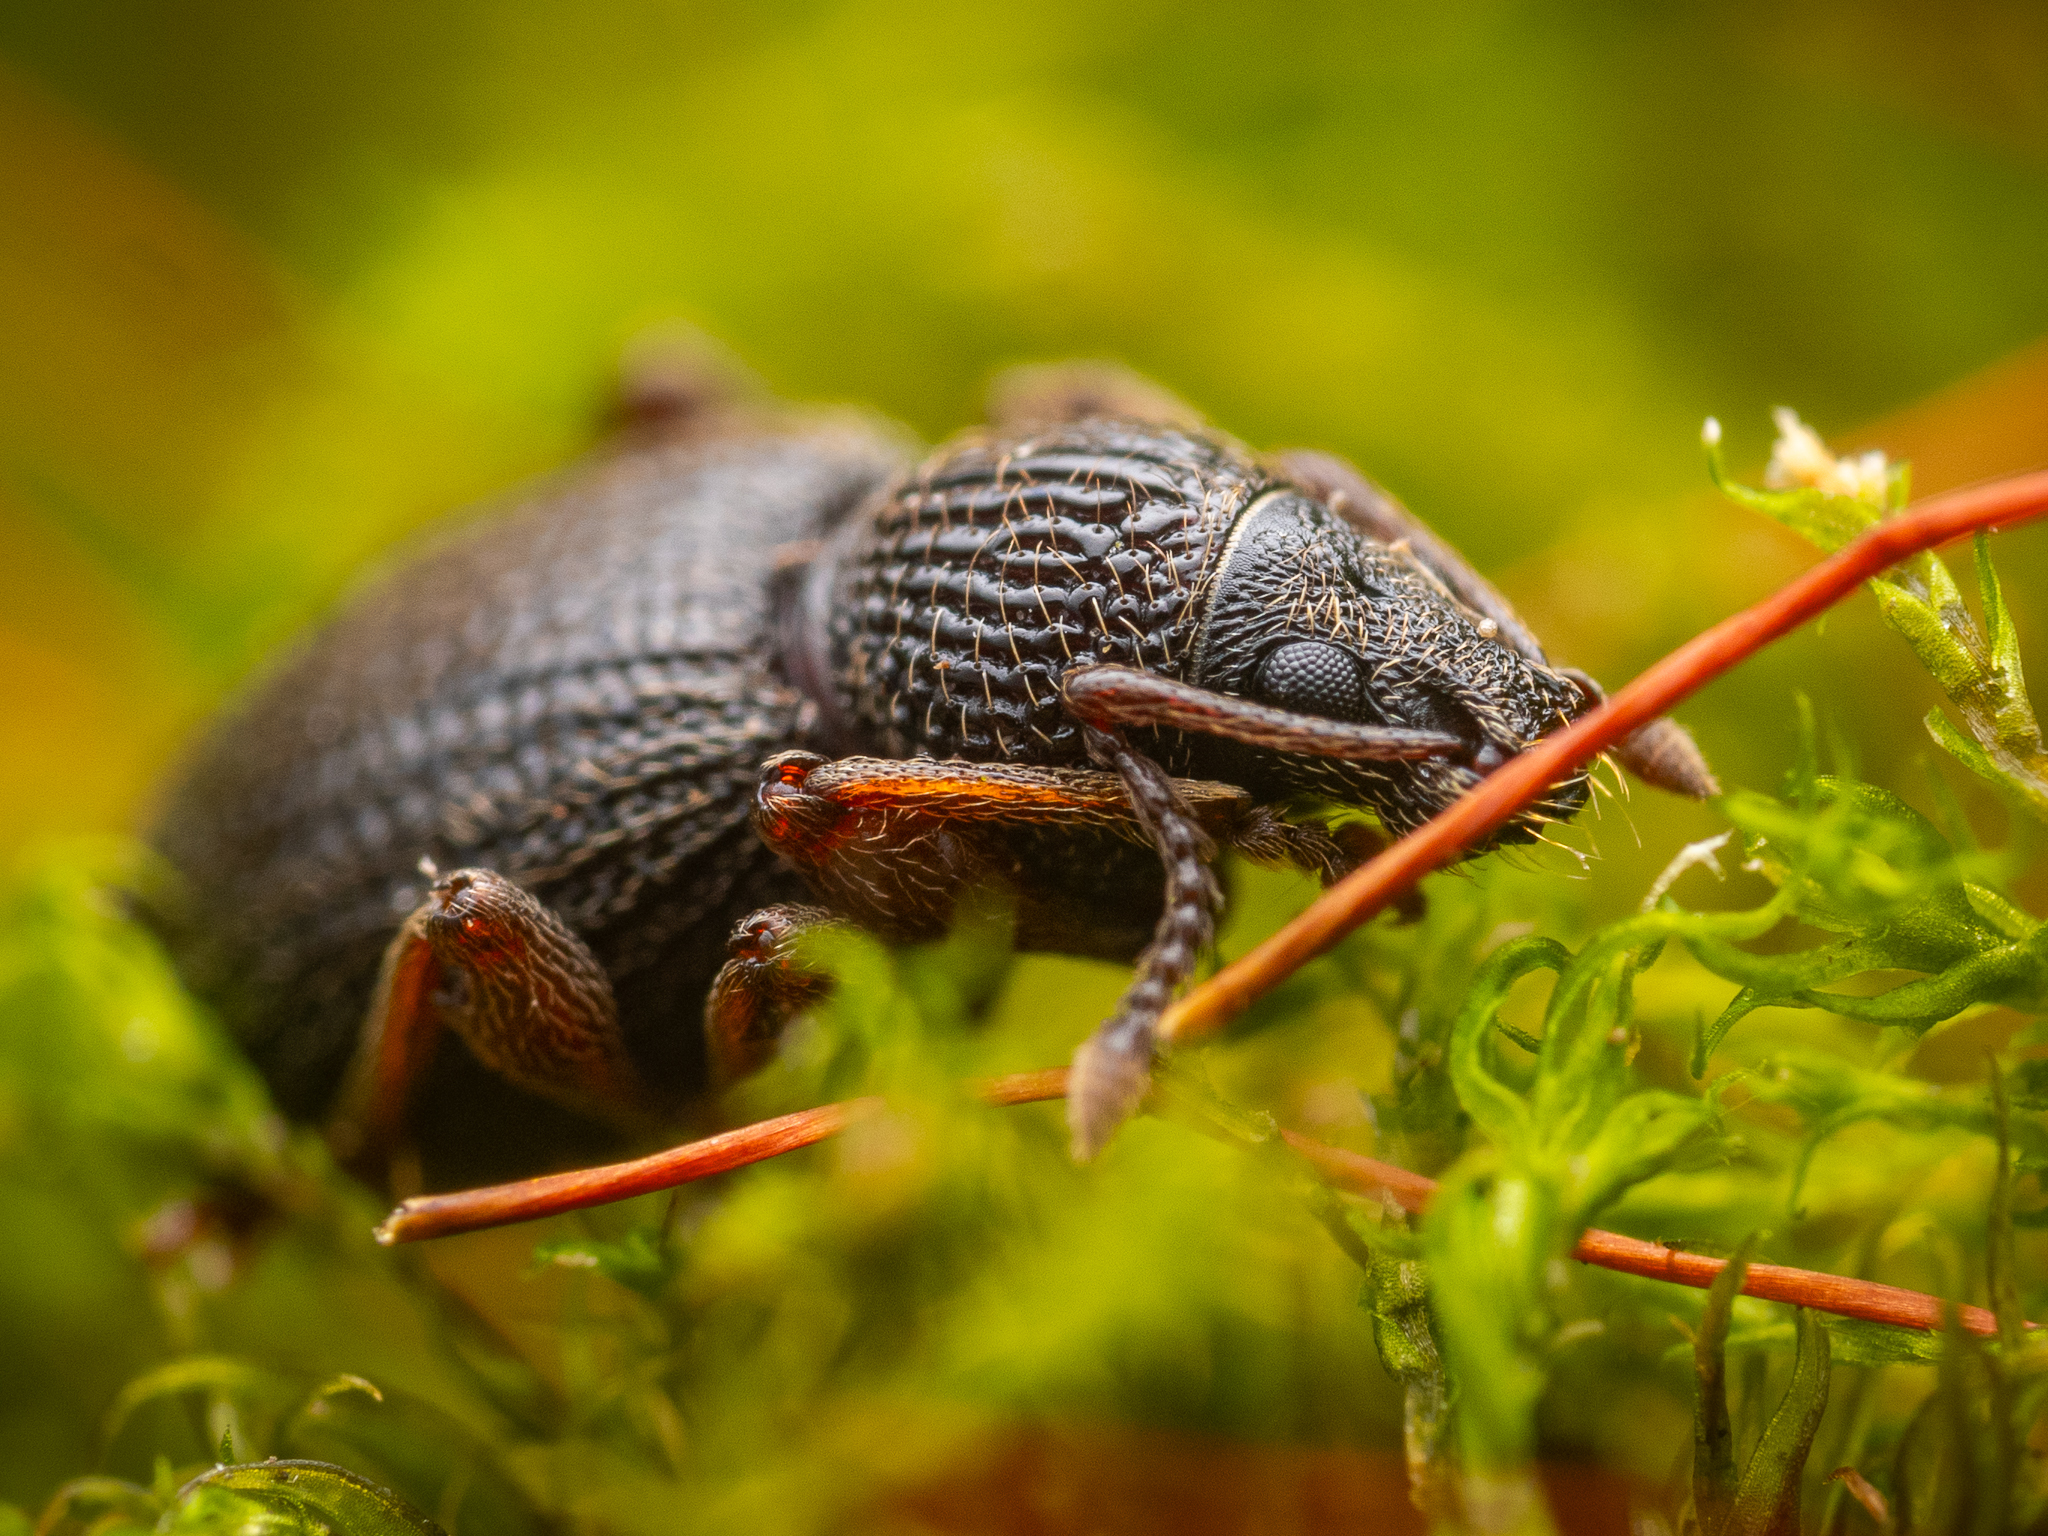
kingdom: Animalia
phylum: Arthropoda
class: Insecta
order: Coleoptera
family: Curculionidae
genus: Otiorhynchus
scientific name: Otiorhynchus ovatus
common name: Strawberry root weevil
